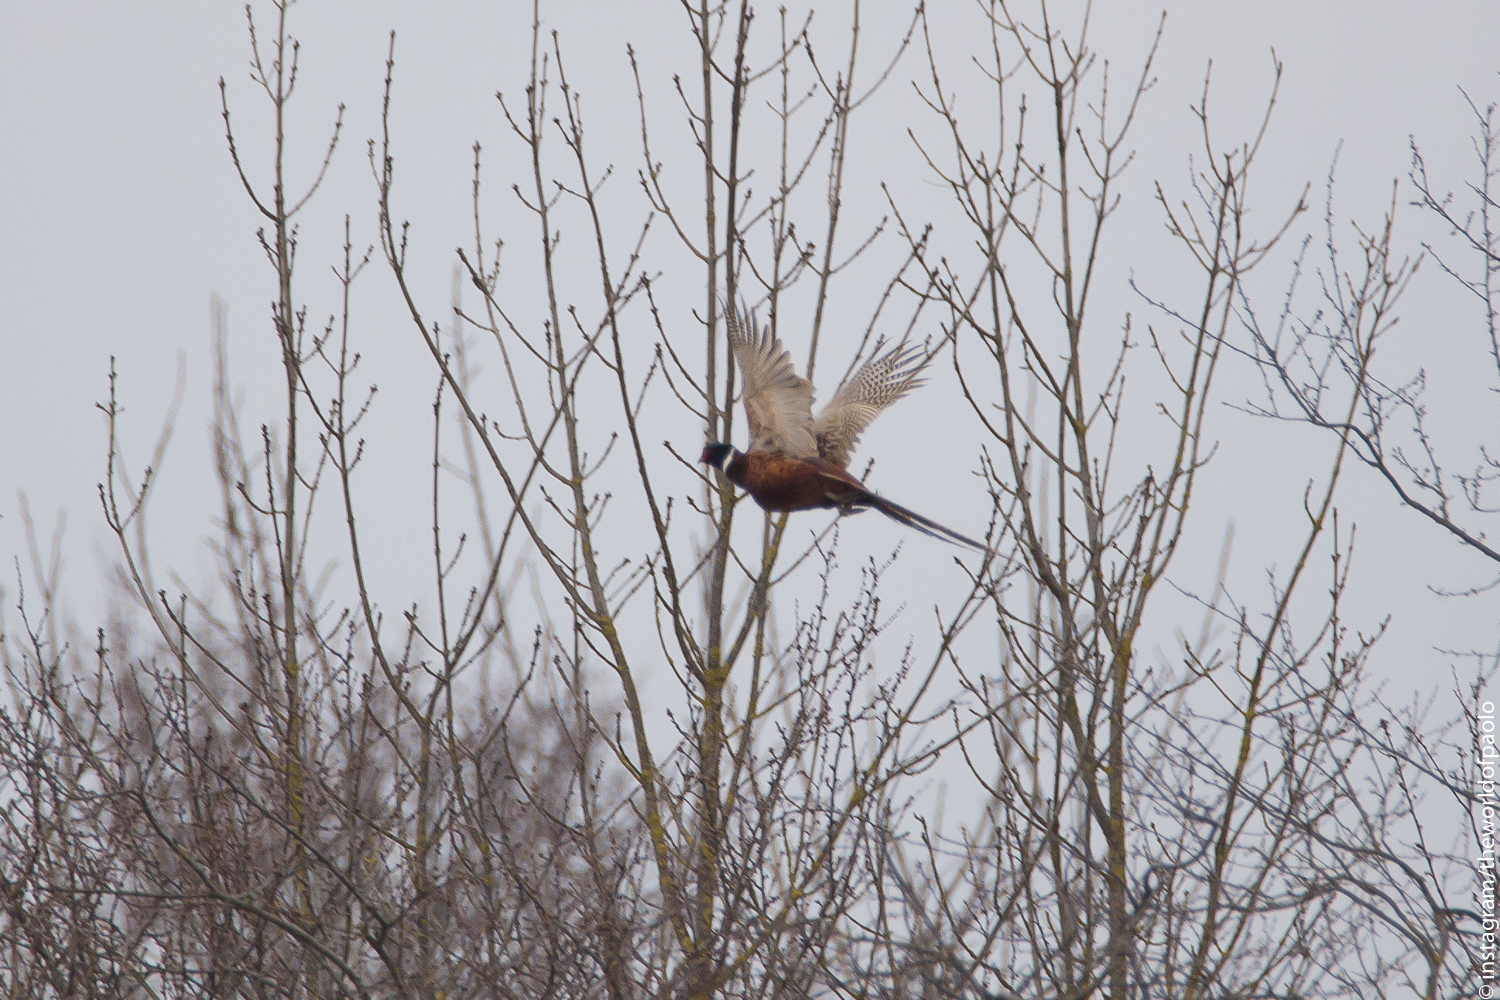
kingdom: Animalia
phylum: Chordata
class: Aves
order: Galliformes
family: Phasianidae
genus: Phasianus
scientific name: Phasianus colchicus
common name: Common pheasant
